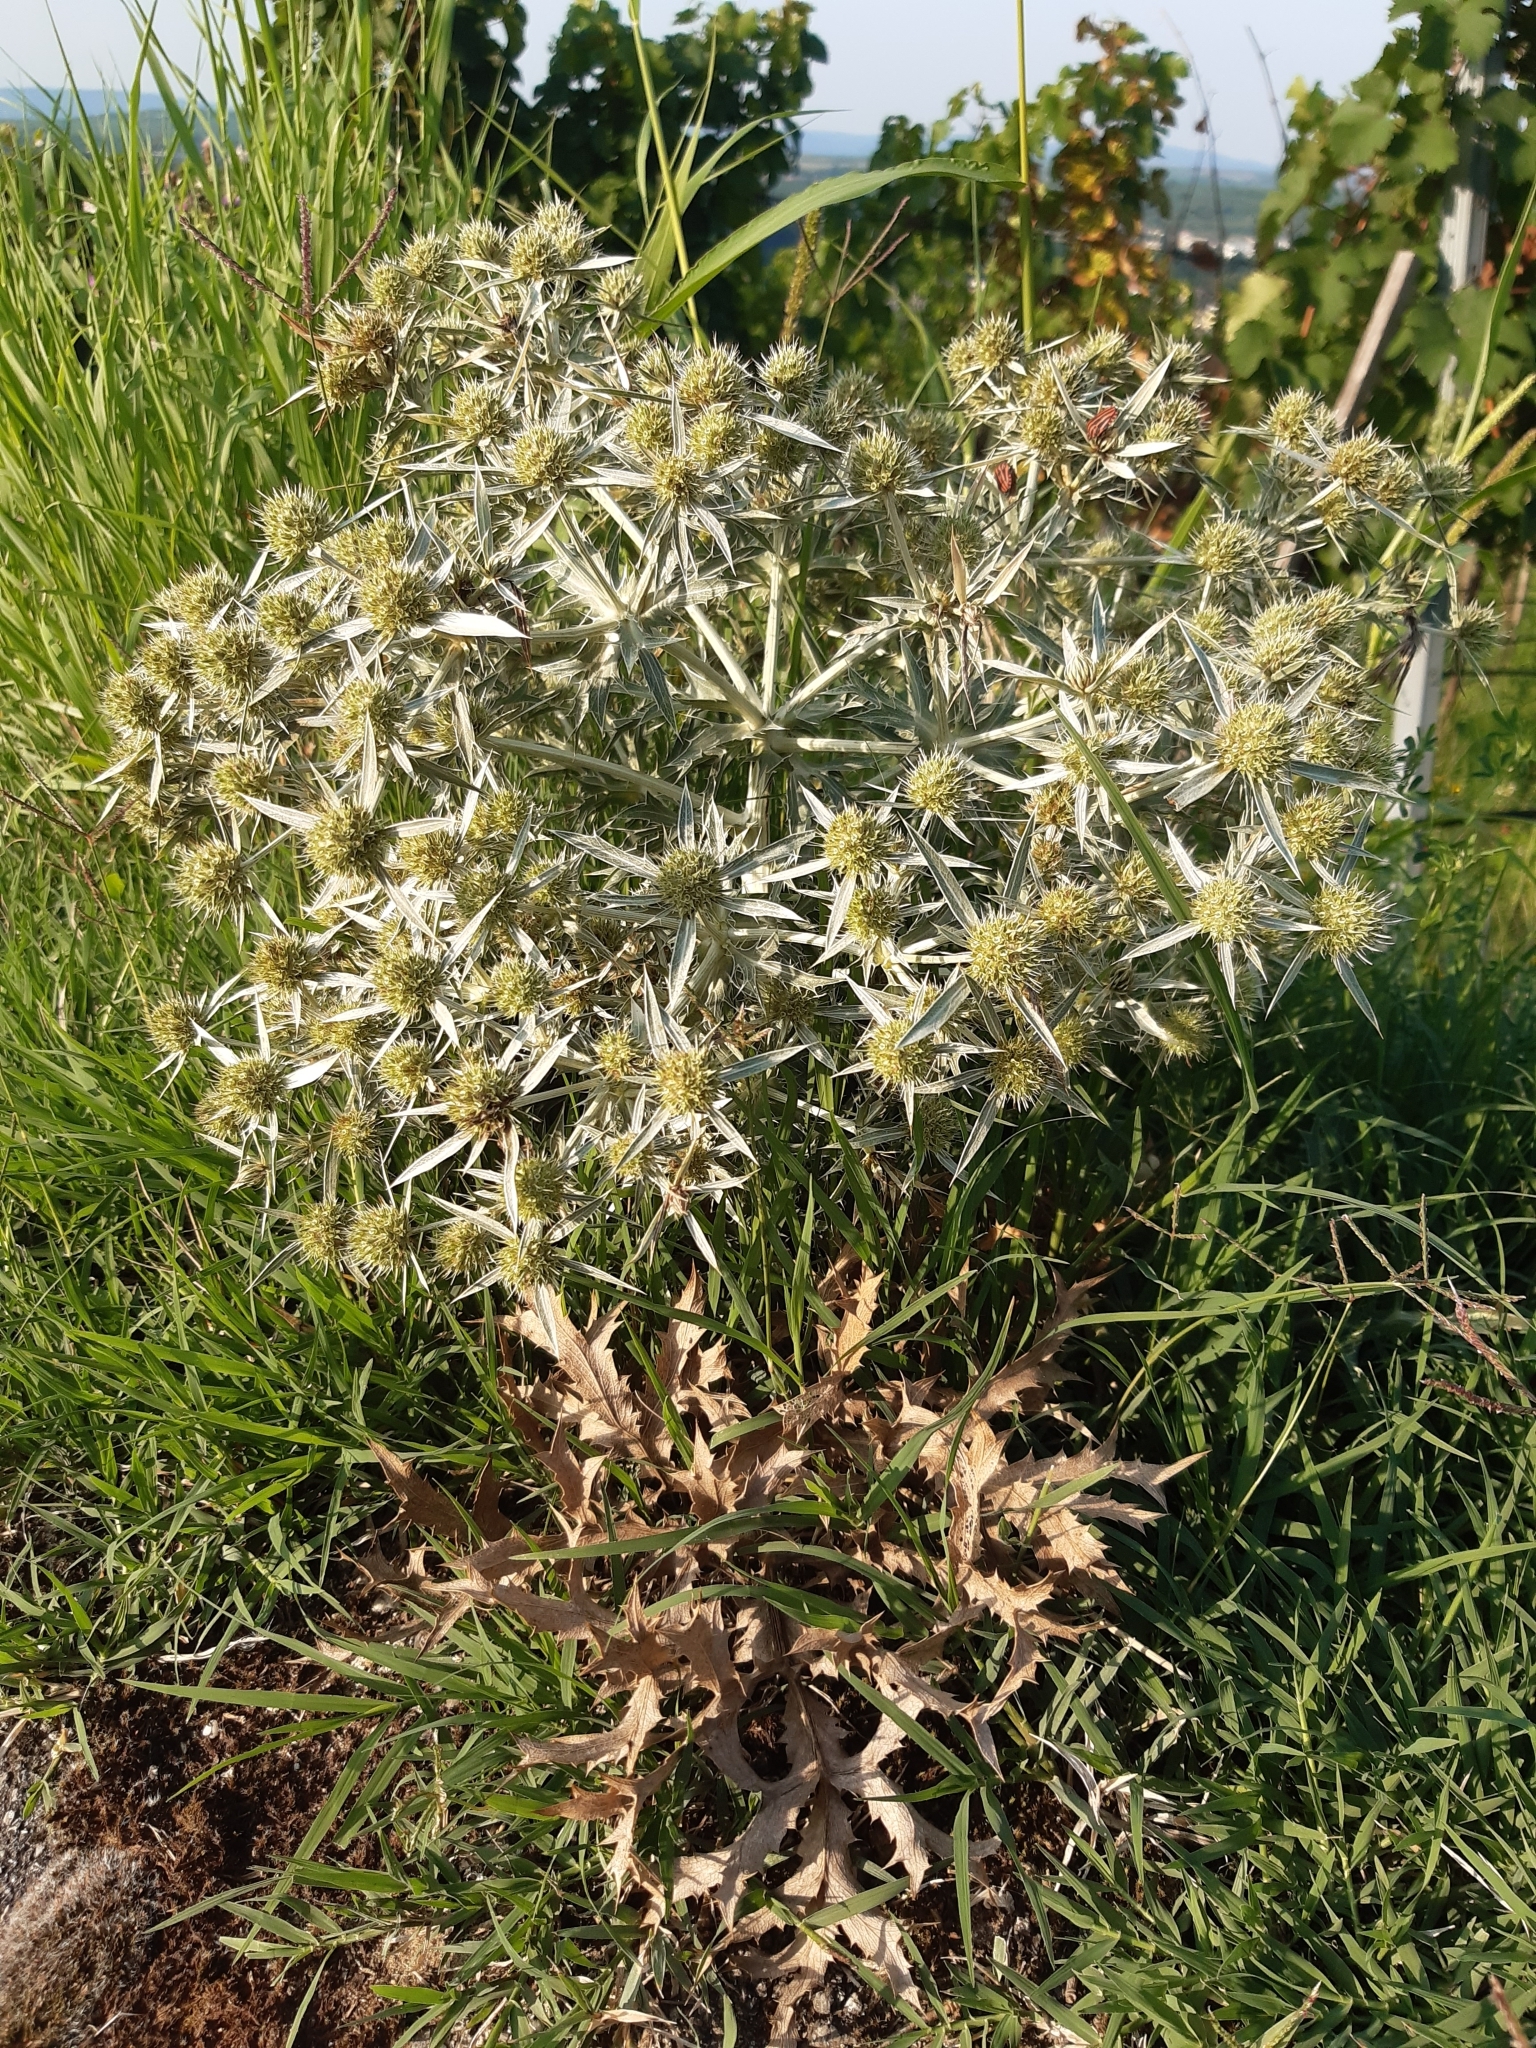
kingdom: Plantae
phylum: Tracheophyta
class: Magnoliopsida
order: Apiales
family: Apiaceae
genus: Eryngium
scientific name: Eryngium campestre
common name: Field eryngo
